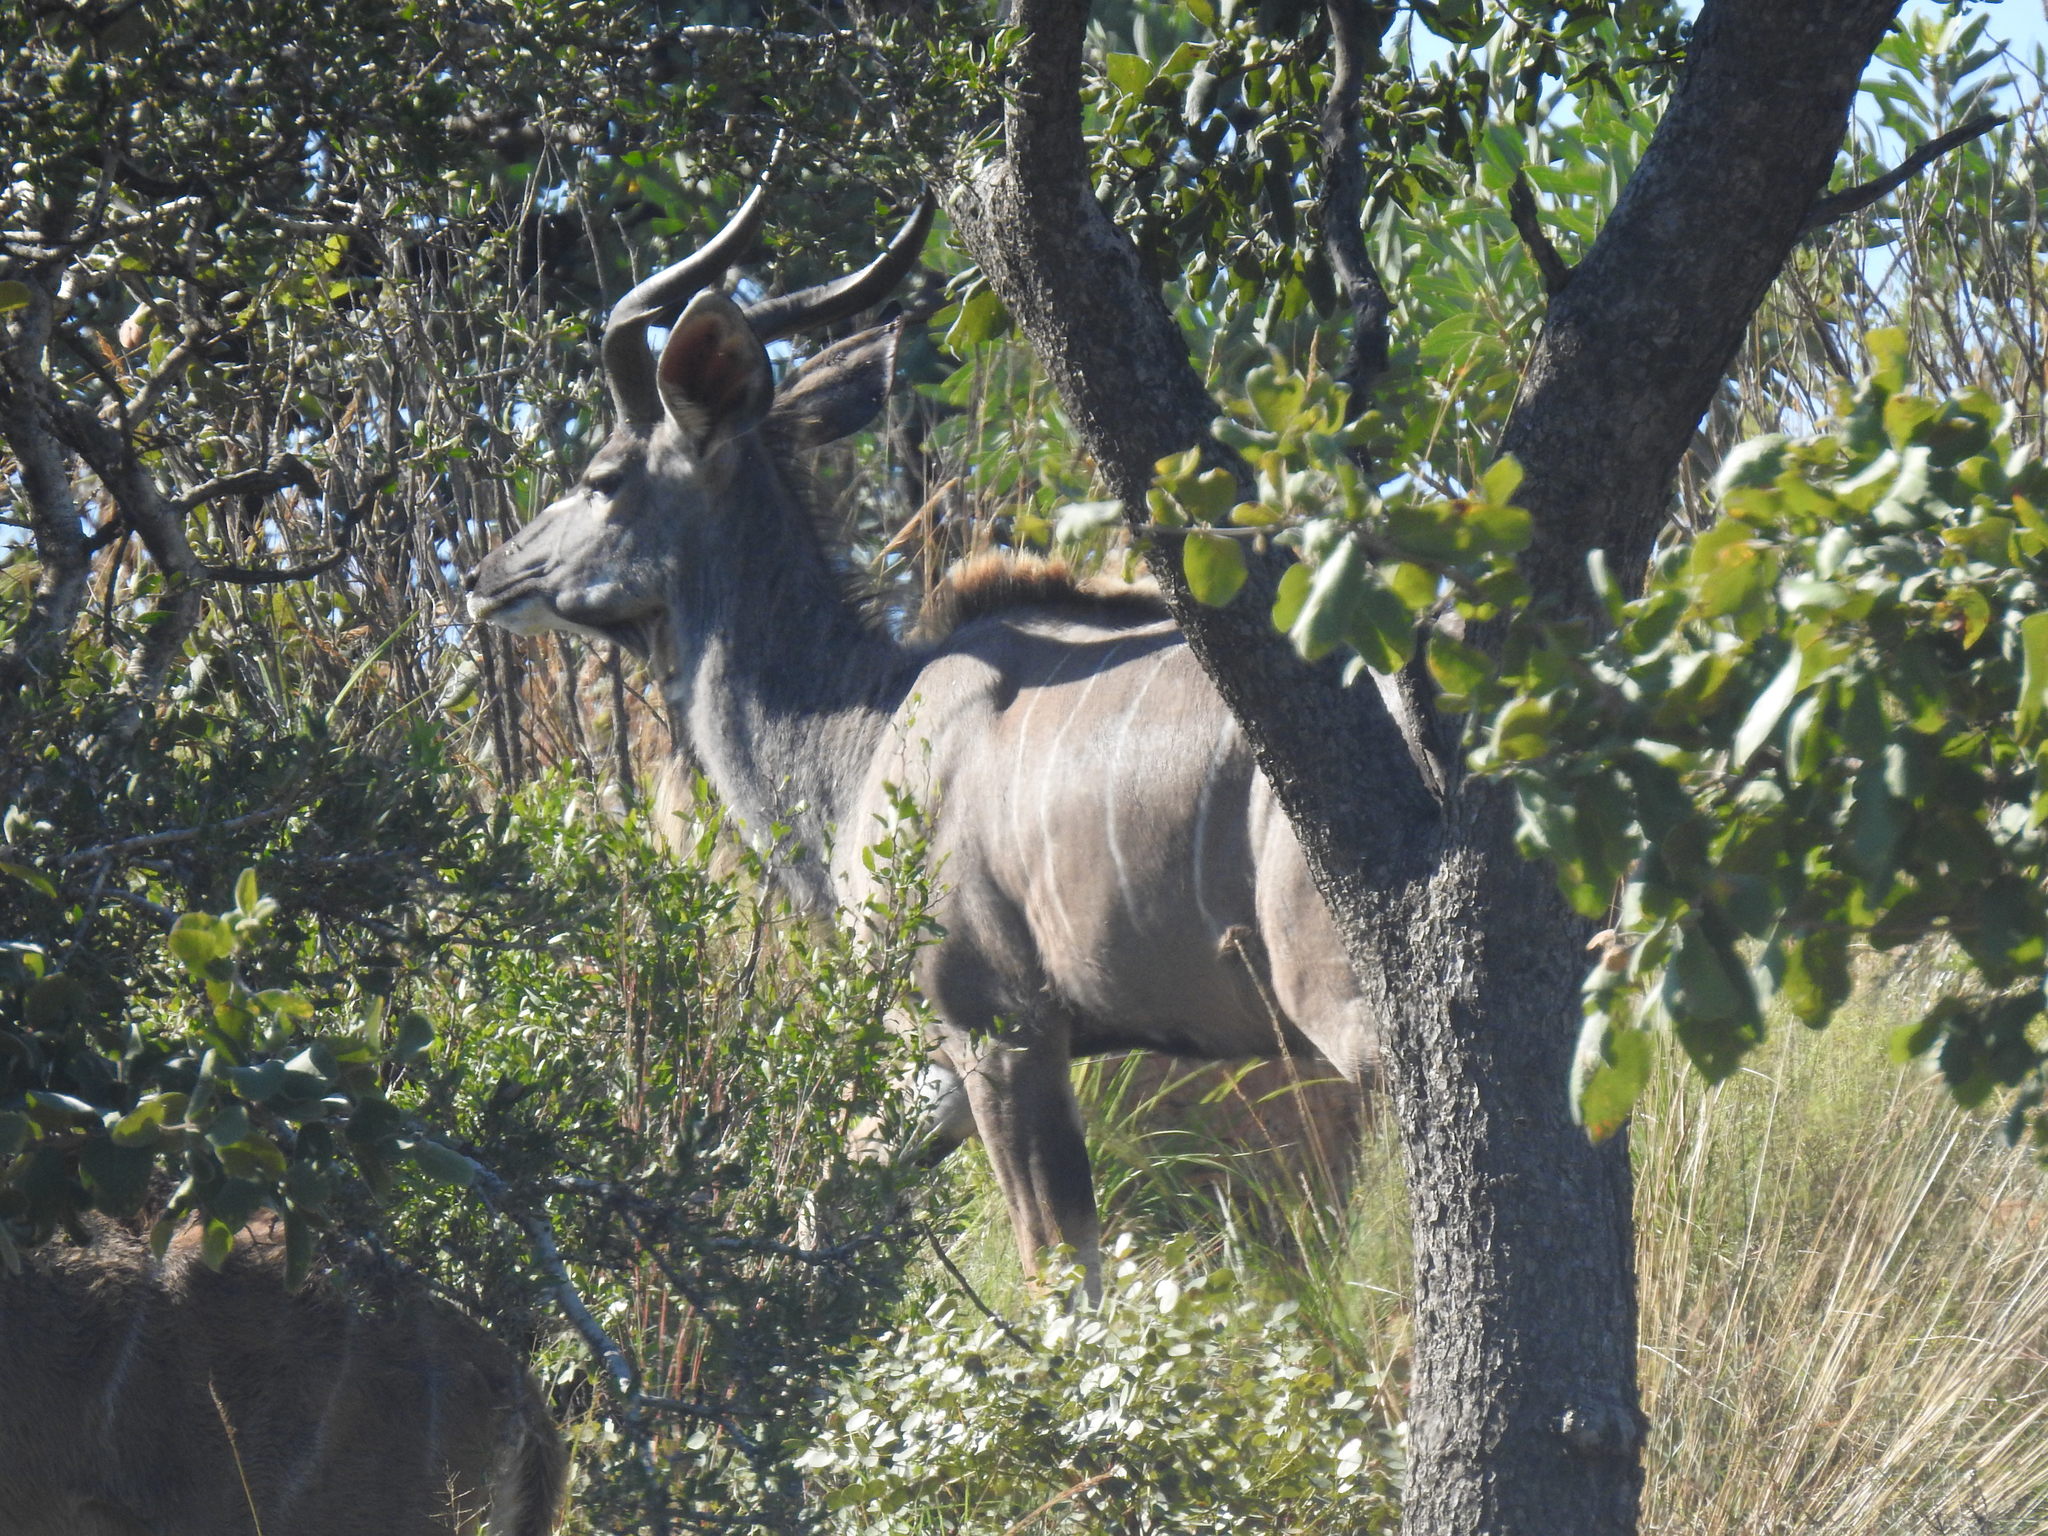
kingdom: Animalia
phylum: Chordata
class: Mammalia
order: Artiodactyla
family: Bovidae
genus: Tragelaphus
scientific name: Tragelaphus strepsiceros
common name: Greater kudu
